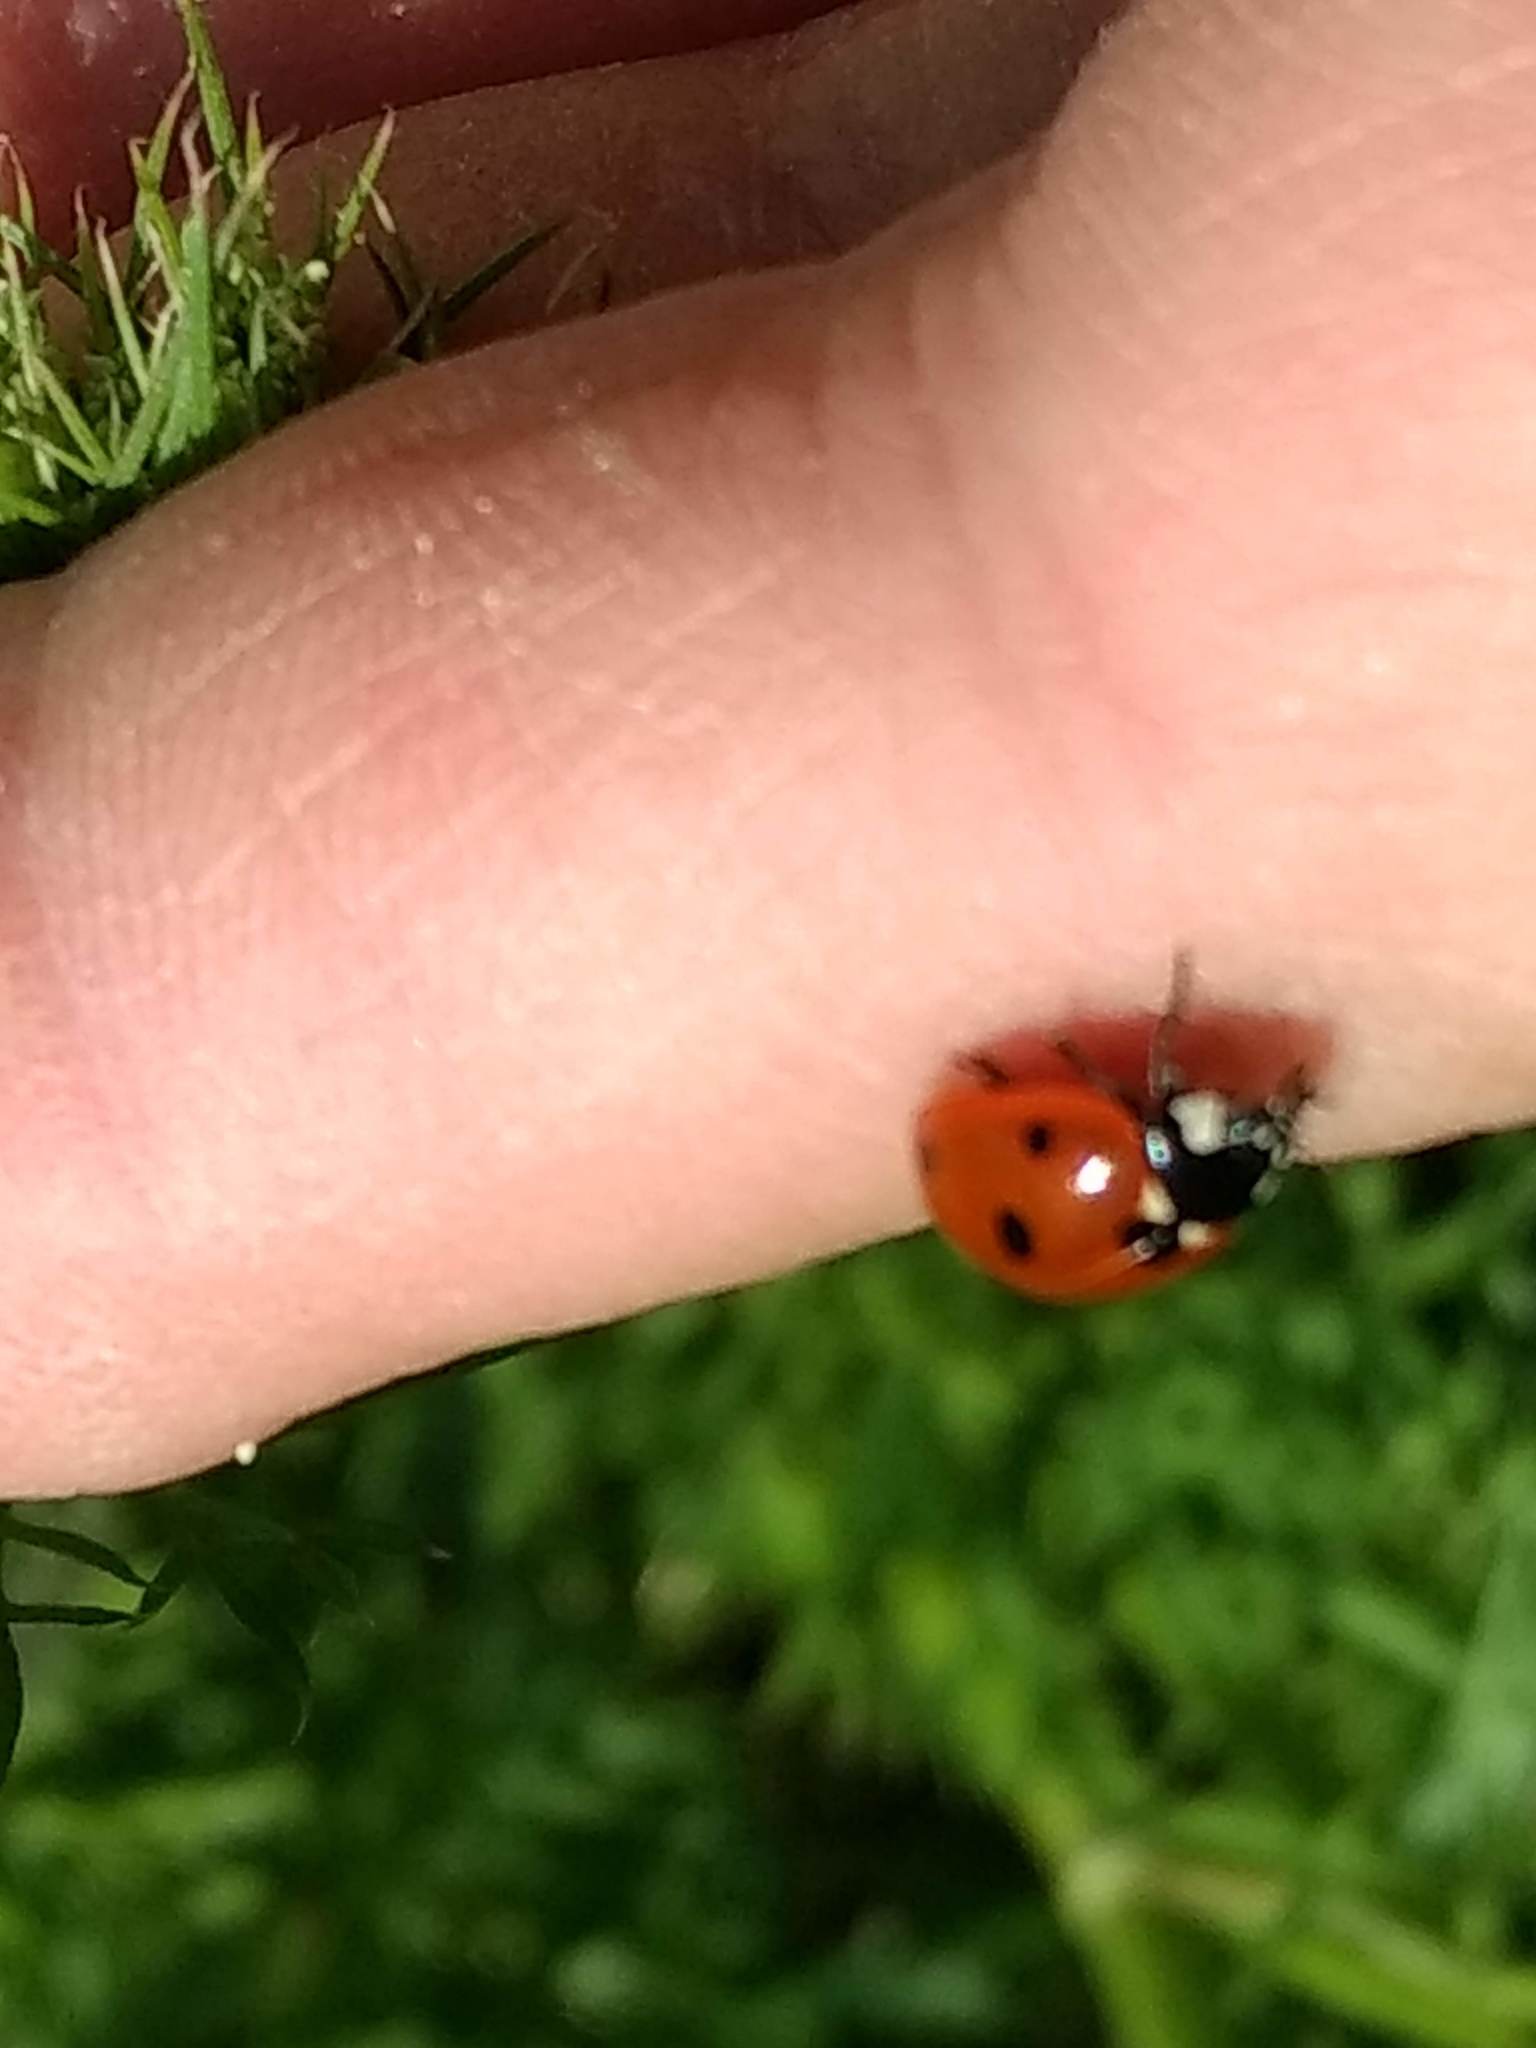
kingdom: Animalia
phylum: Arthropoda
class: Insecta
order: Coleoptera
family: Coccinellidae
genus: Coccinella
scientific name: Coccinella septempunctata
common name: Sevenspotted lady beetle
